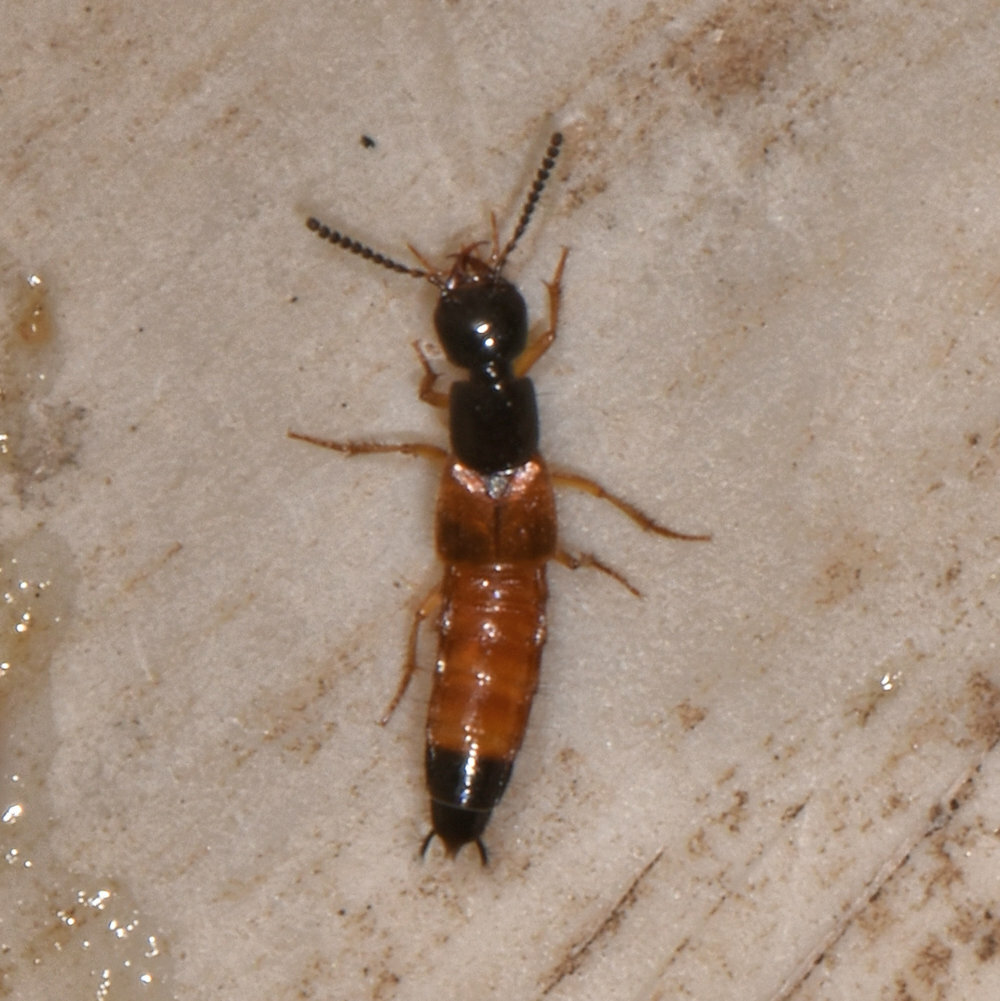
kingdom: Animalia
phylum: Arthropoda
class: Insecta
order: Coleoptera
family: Staphylinidae
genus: Belonuchus
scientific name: Belonuchus rufipennis
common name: Large rove beetle
